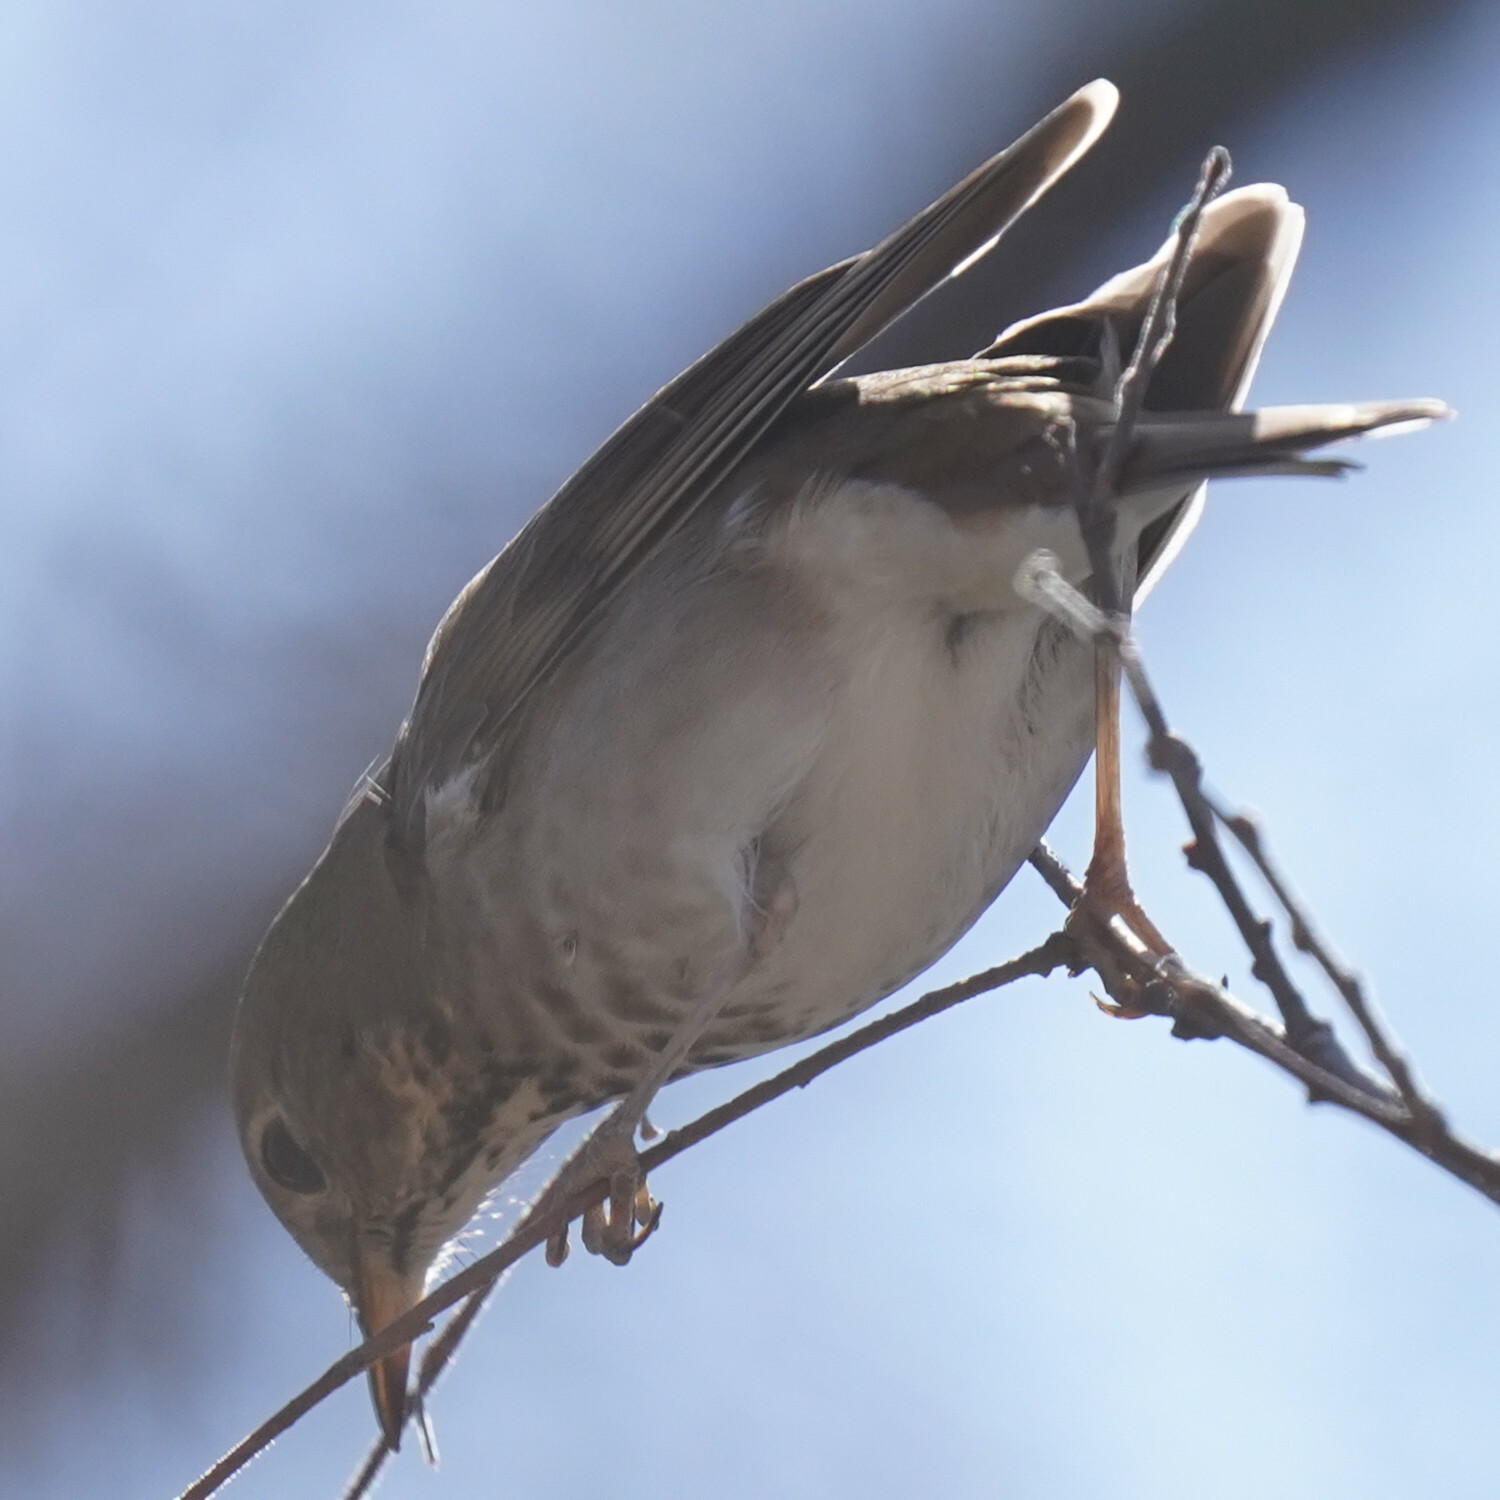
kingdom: Animalia
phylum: Chordata
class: Aves
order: Passeriformes
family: Turdidae
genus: Catharus
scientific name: Catharus guttatus
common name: Hermit thrush
